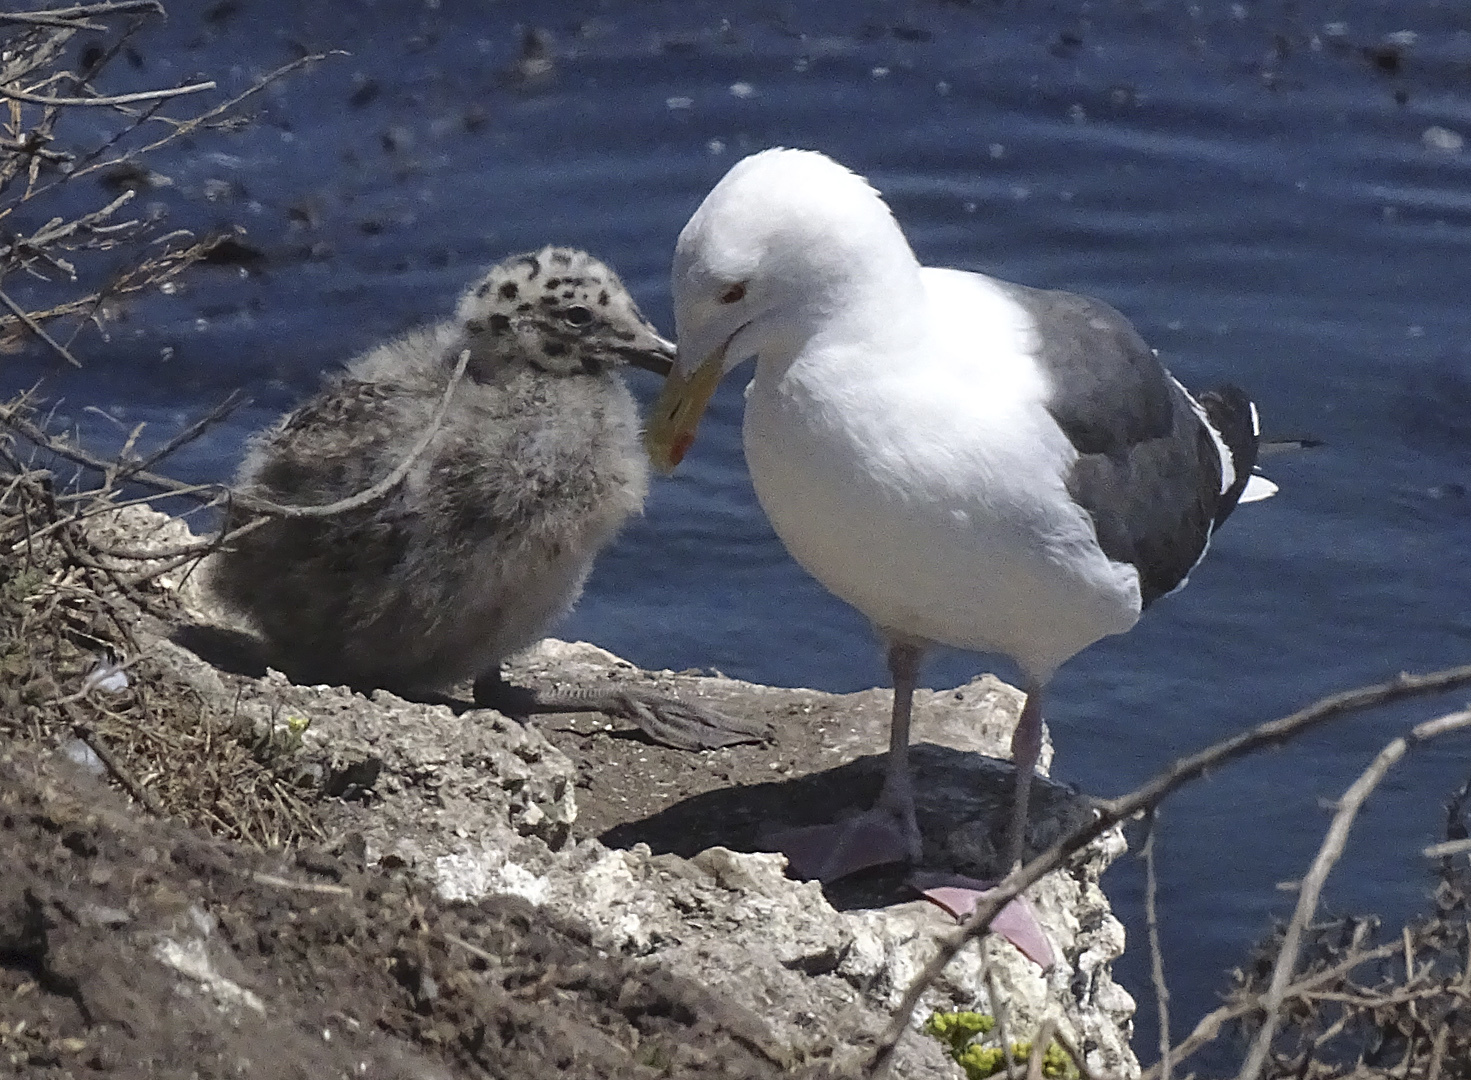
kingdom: Animalia
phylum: Chordata
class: Aves
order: Charadriiformes
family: Laridae
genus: Larus
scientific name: Larus occidentalis
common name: Western gull
